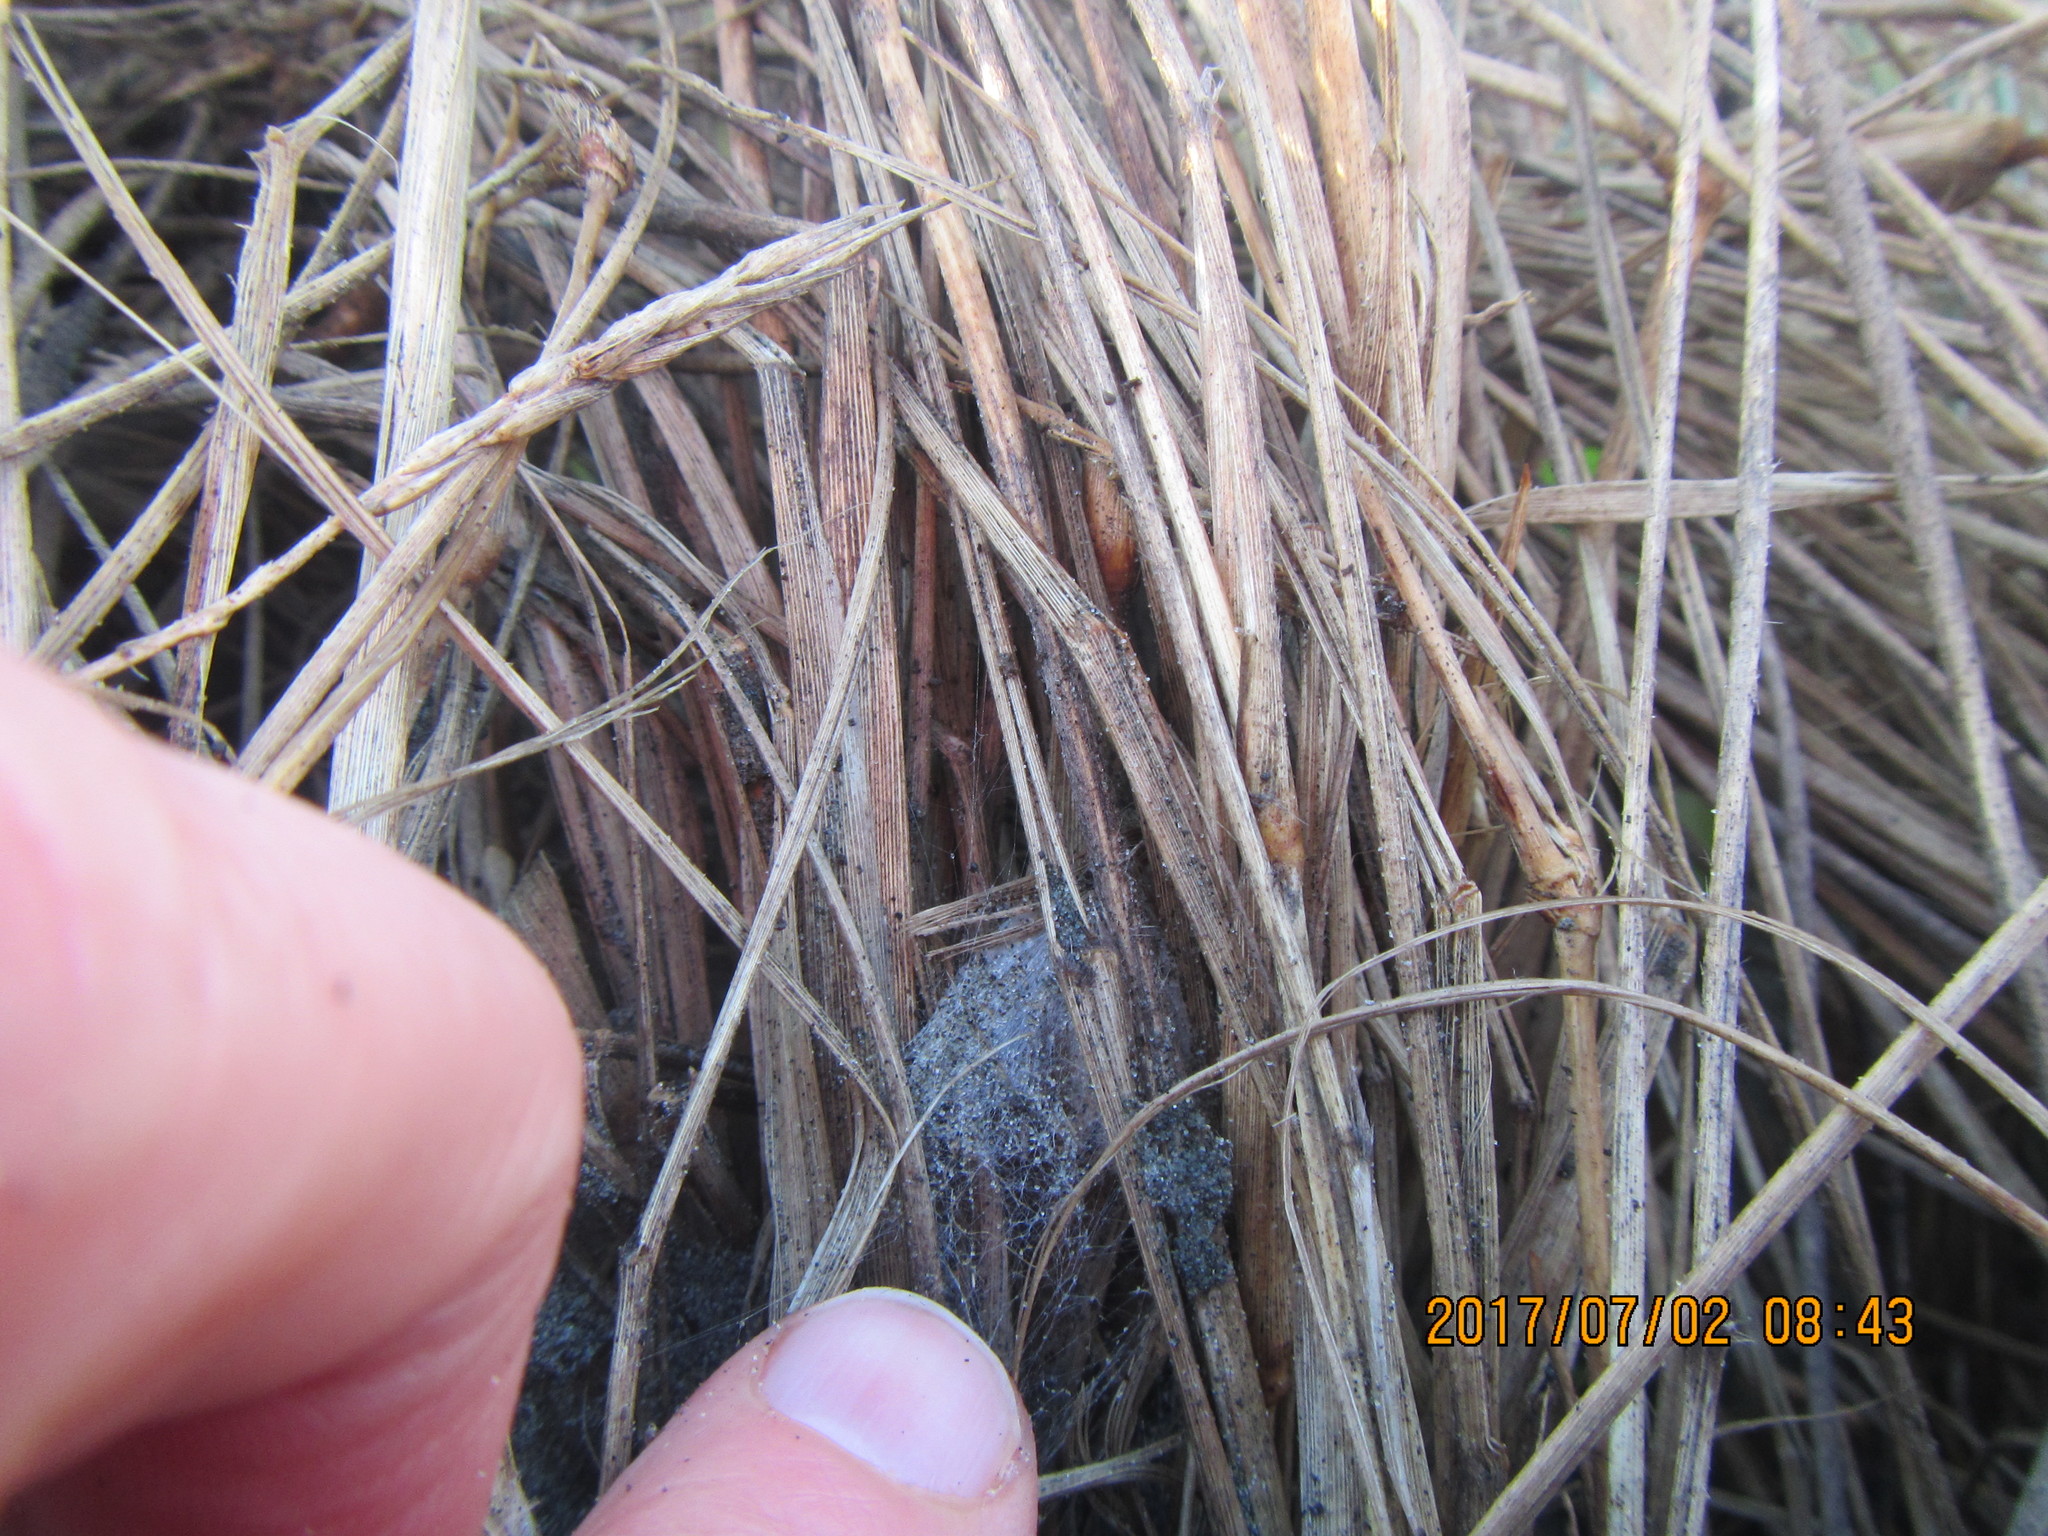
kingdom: Animalia
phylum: Arthropoda
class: Arachnida
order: Araneae
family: Thomisidae
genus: Sidymella
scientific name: Sidymella trapezia
